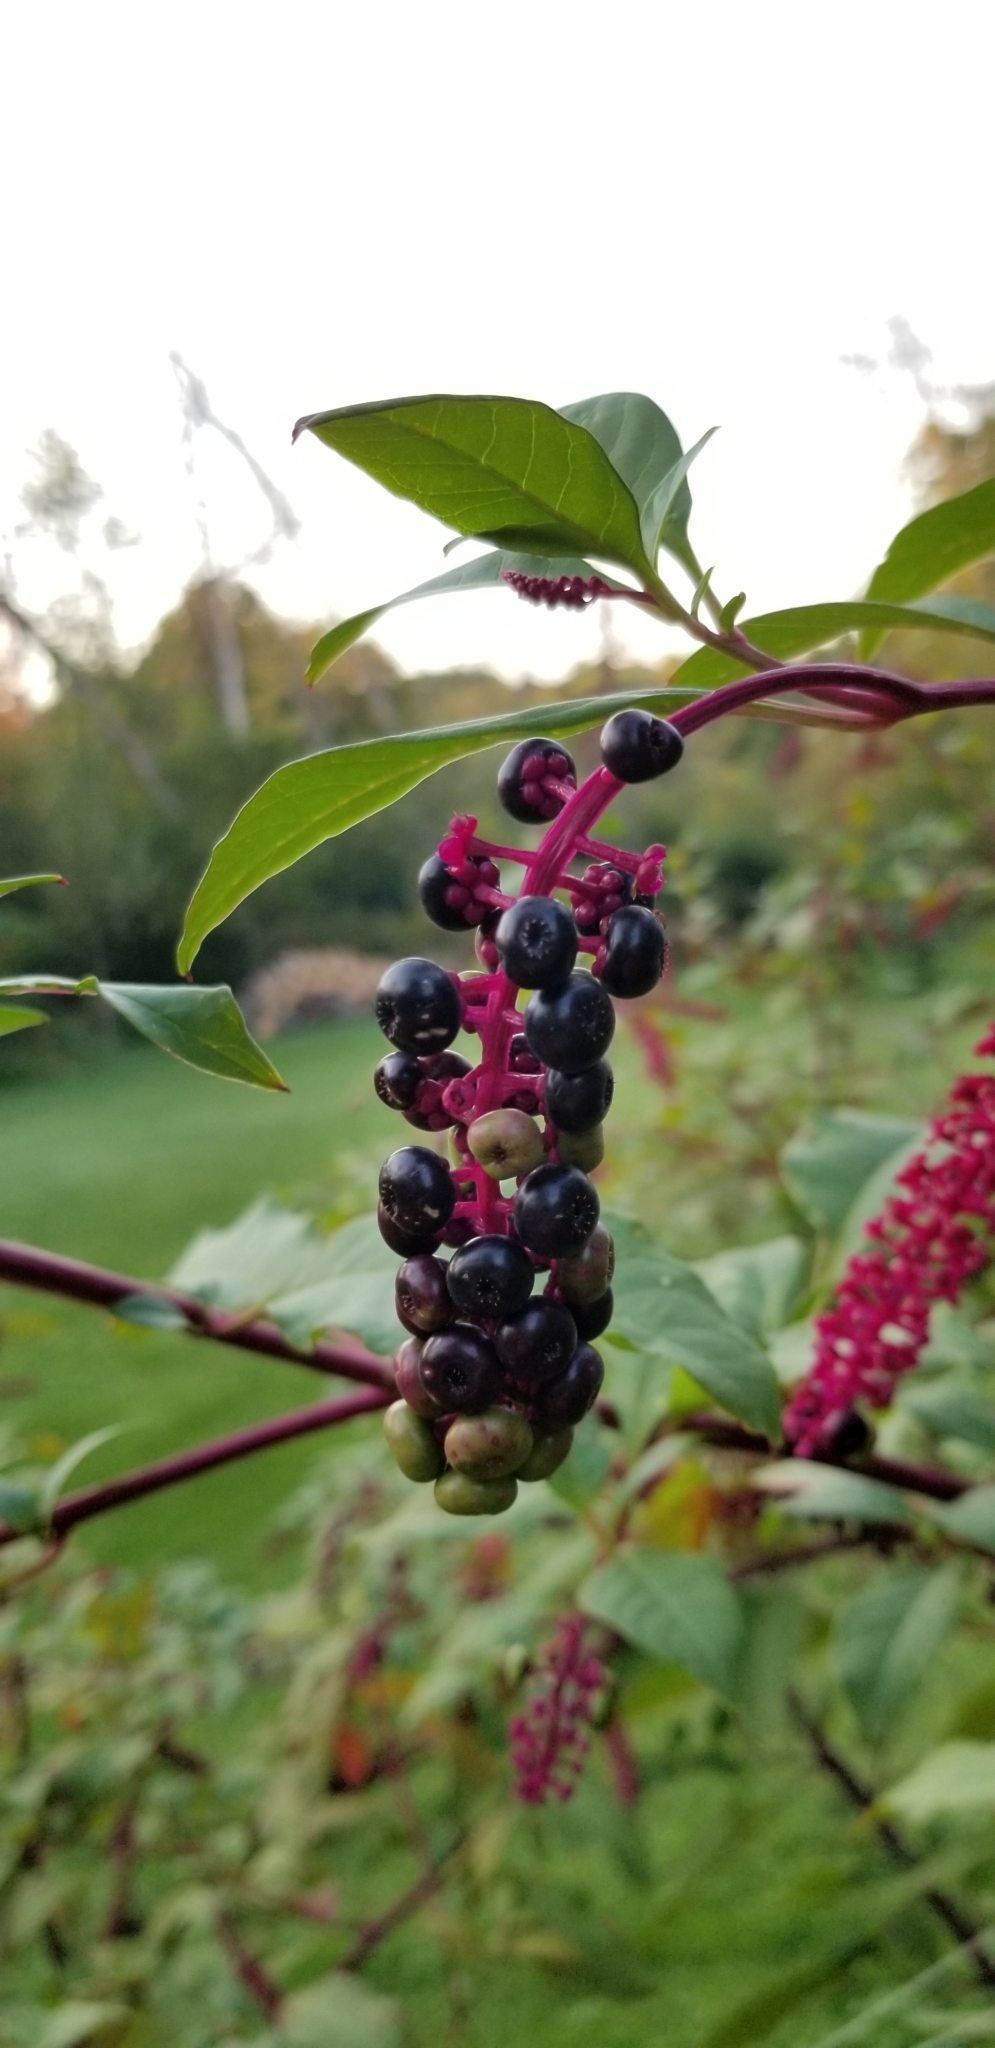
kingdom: Plantae
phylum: Tracheophyta
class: Magnoliopsida
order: Caryophyllales
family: Phytolaccaceae
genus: Phytolacca
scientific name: Phytolacca americana
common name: American pokeweed
